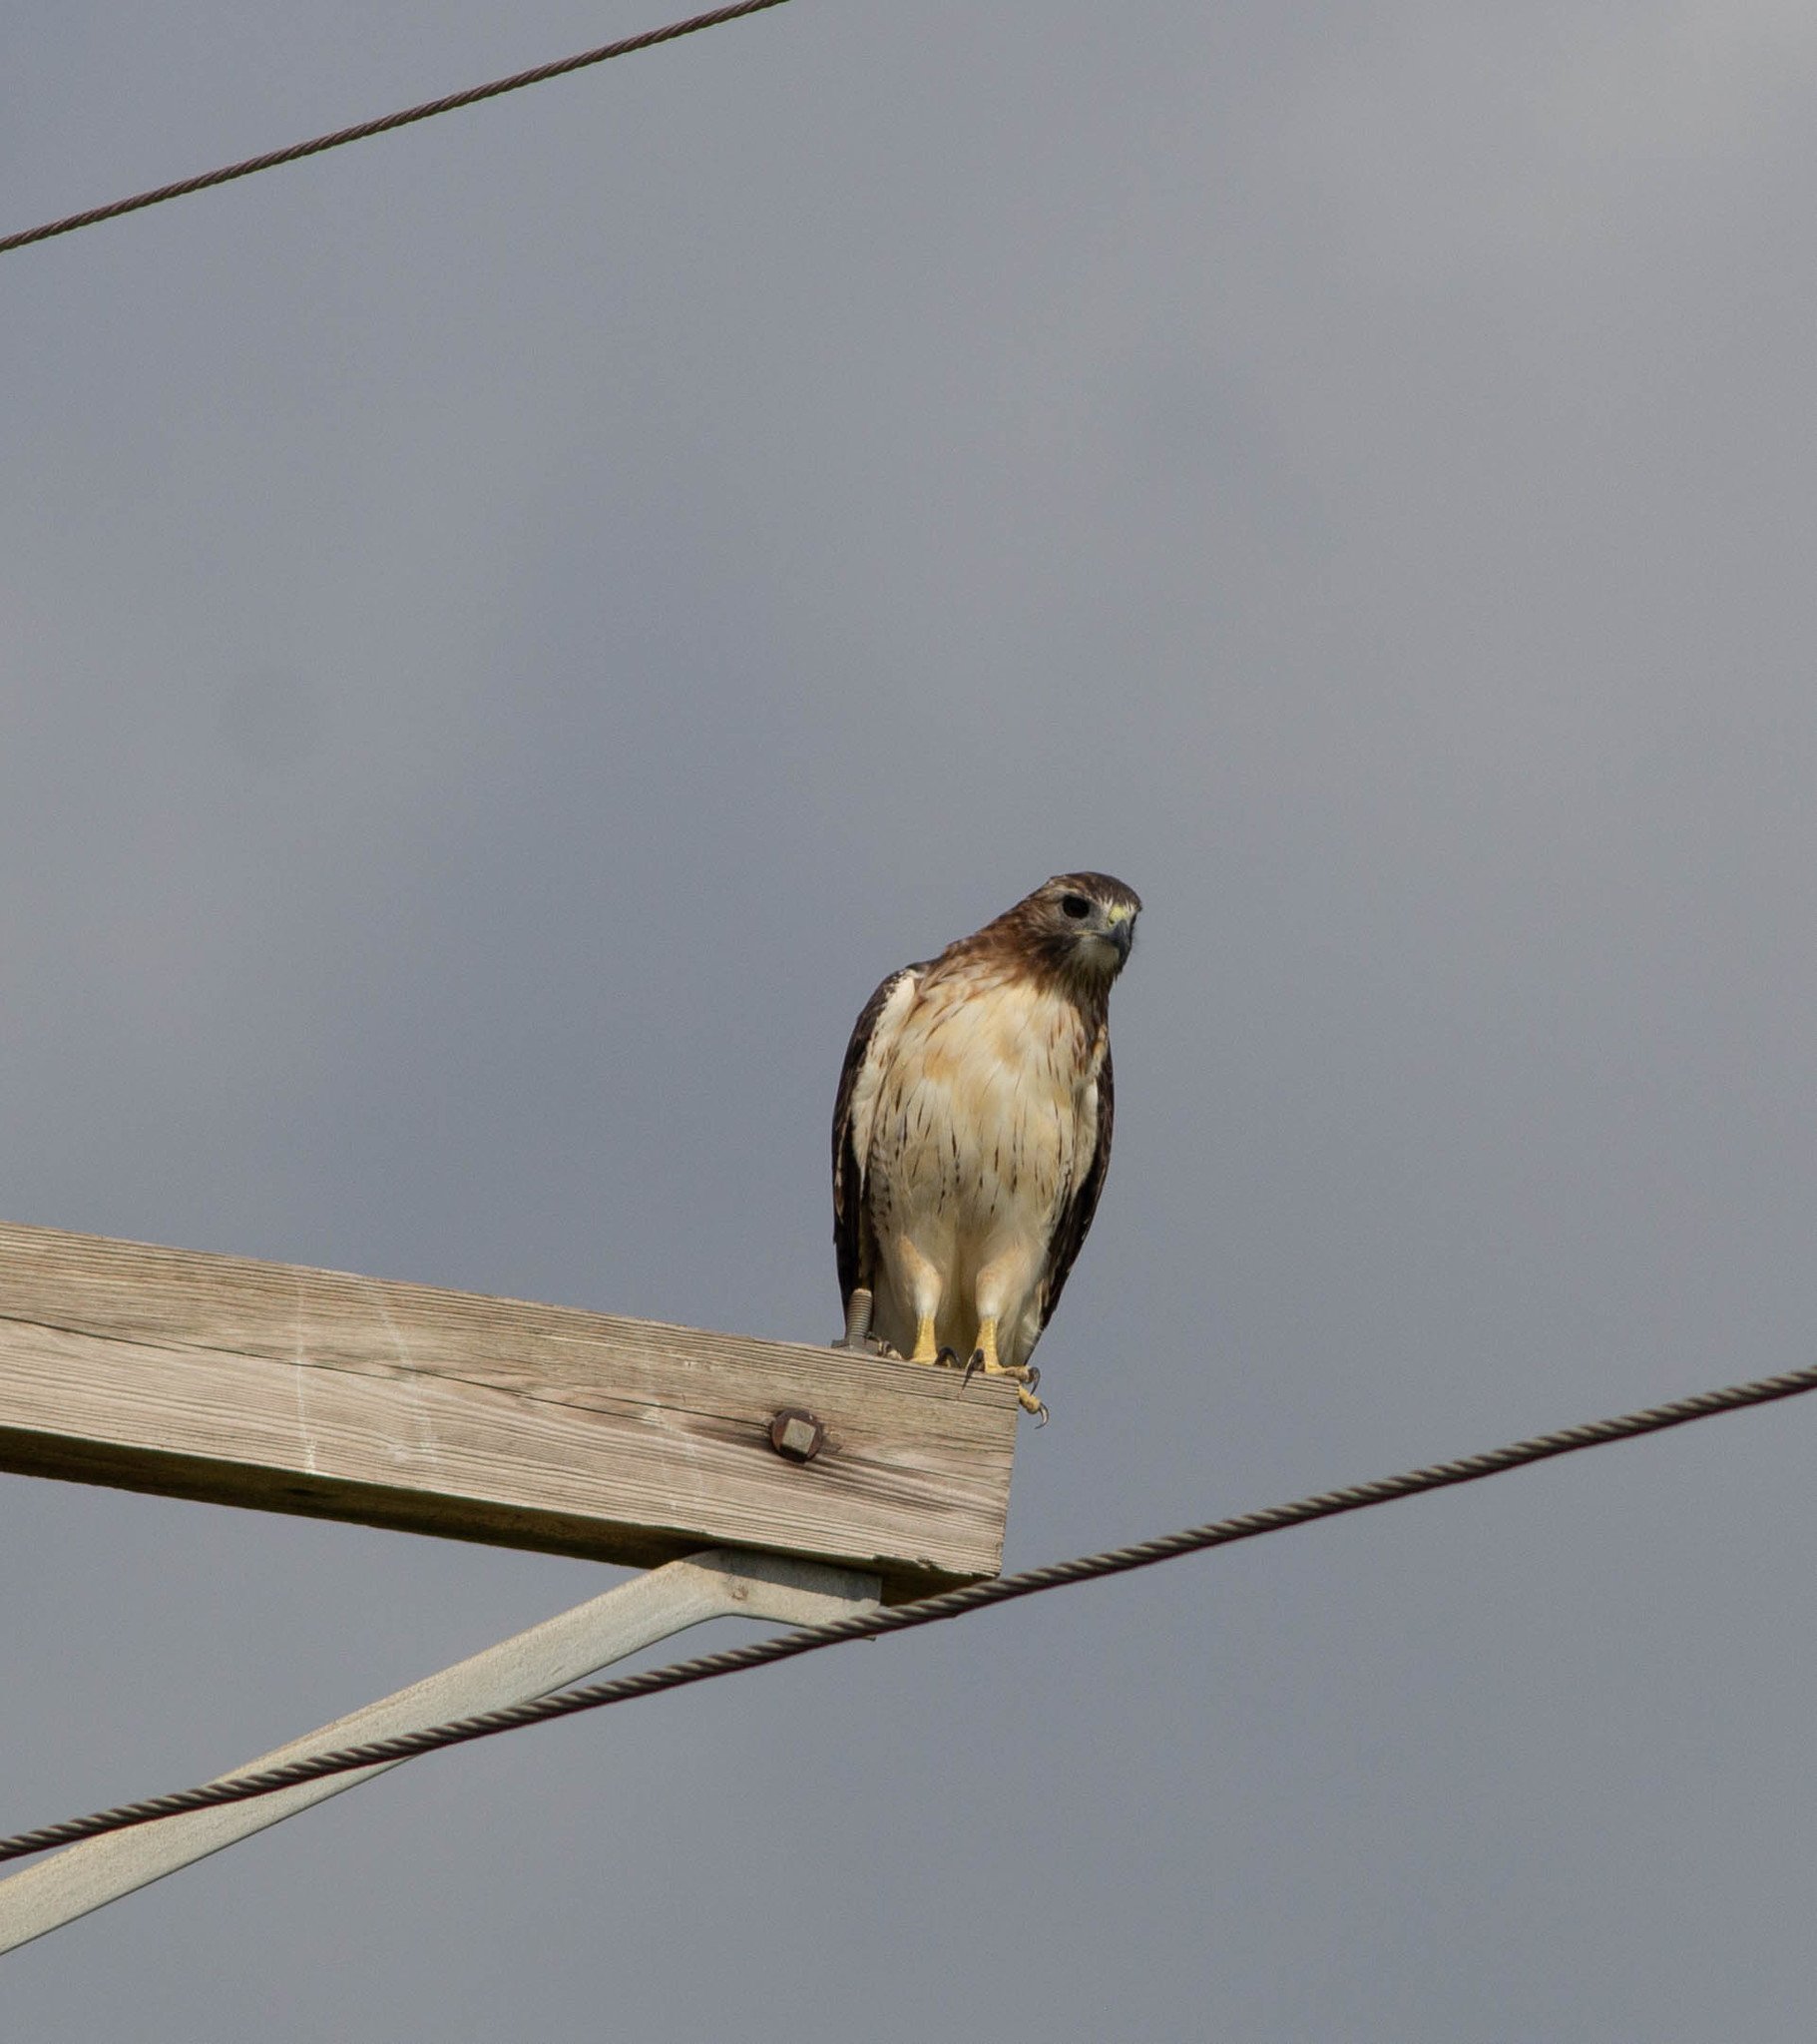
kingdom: Animalia
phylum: Chordata
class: Aves
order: Accipitriformes
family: Accipitridae
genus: Buteo
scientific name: Buteo jamaicensis
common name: Red-tailed hawk
